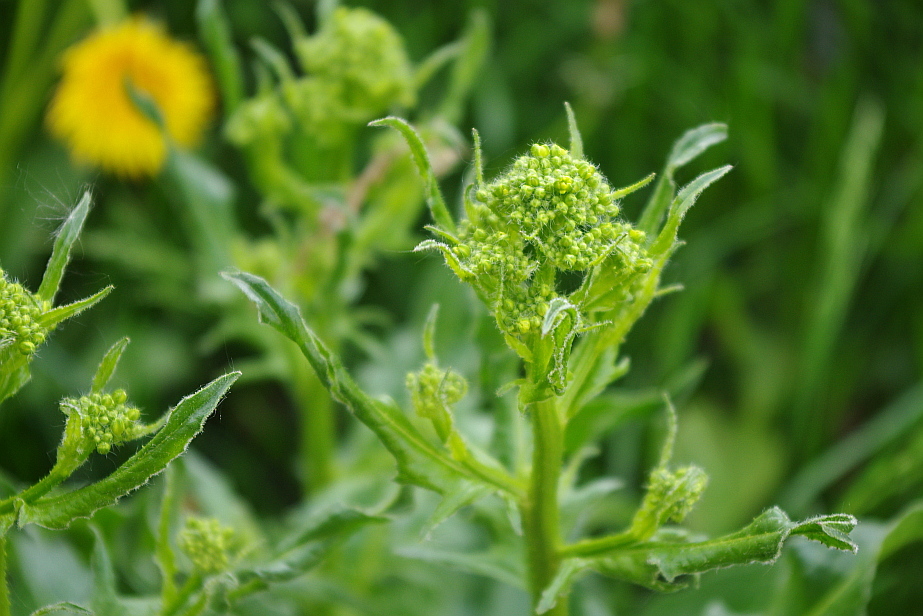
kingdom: Plantae
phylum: Tracheophyta
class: Magnoliopsida
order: Brassicales
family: Brassicaceae
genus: Bunias
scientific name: Bunias orientalis
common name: Warty-cabbage
